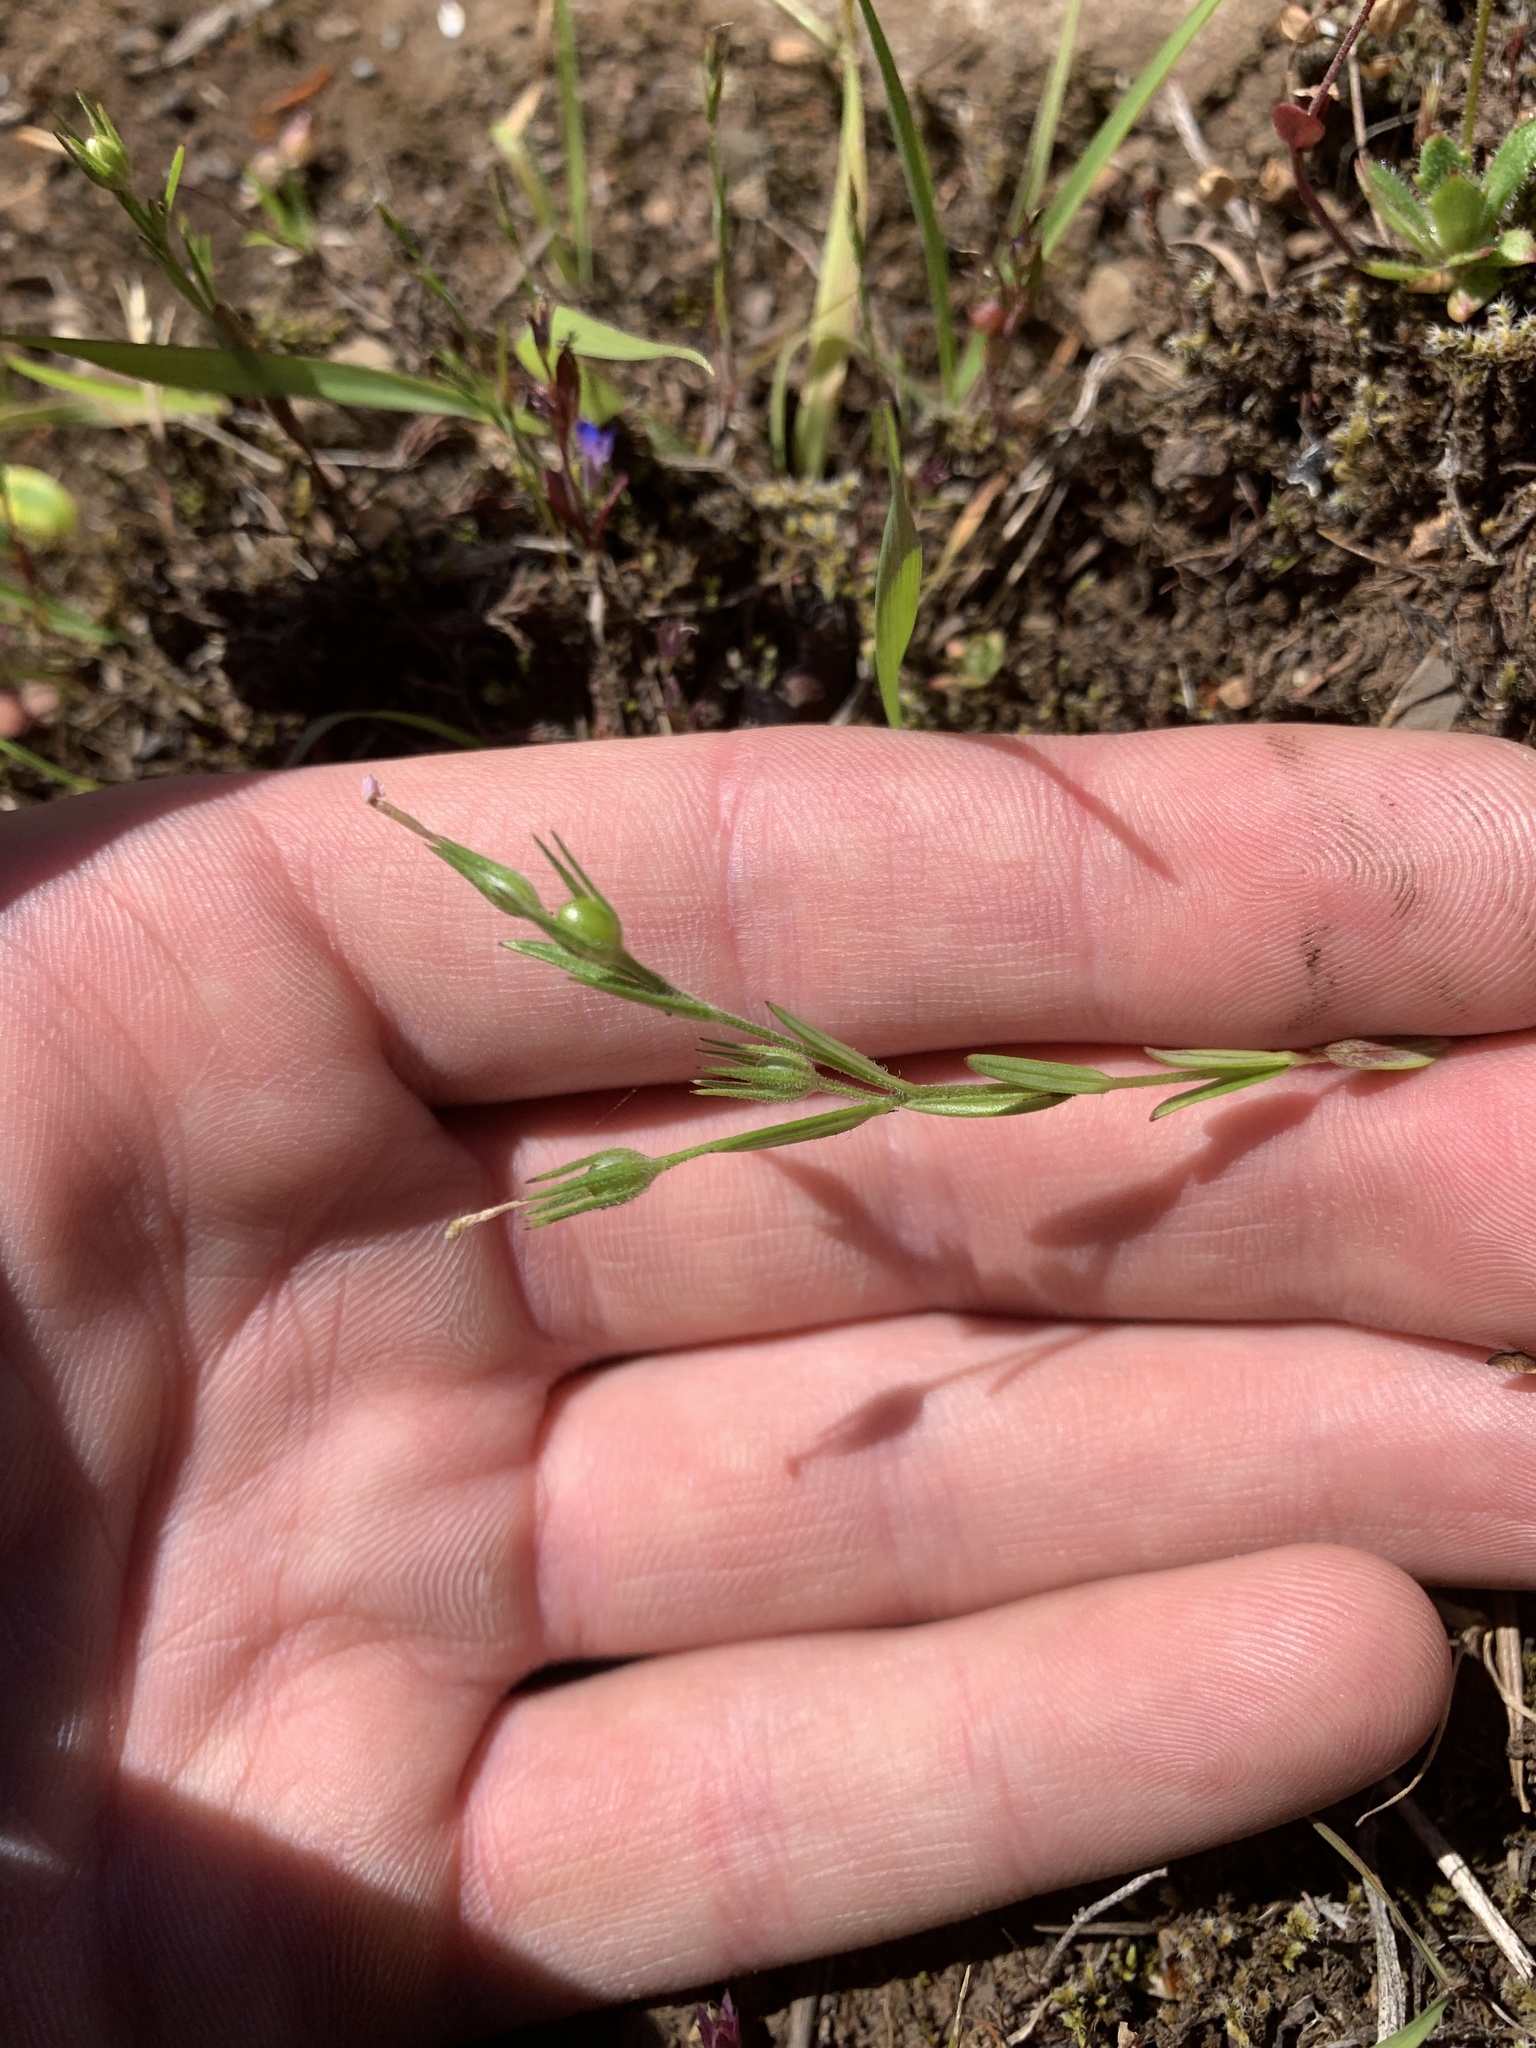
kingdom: Plantae
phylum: Tracheophyta
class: Magnoliopsida
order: Ericales
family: Polemoniaceae
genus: Phlox
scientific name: Phlox gracilis
